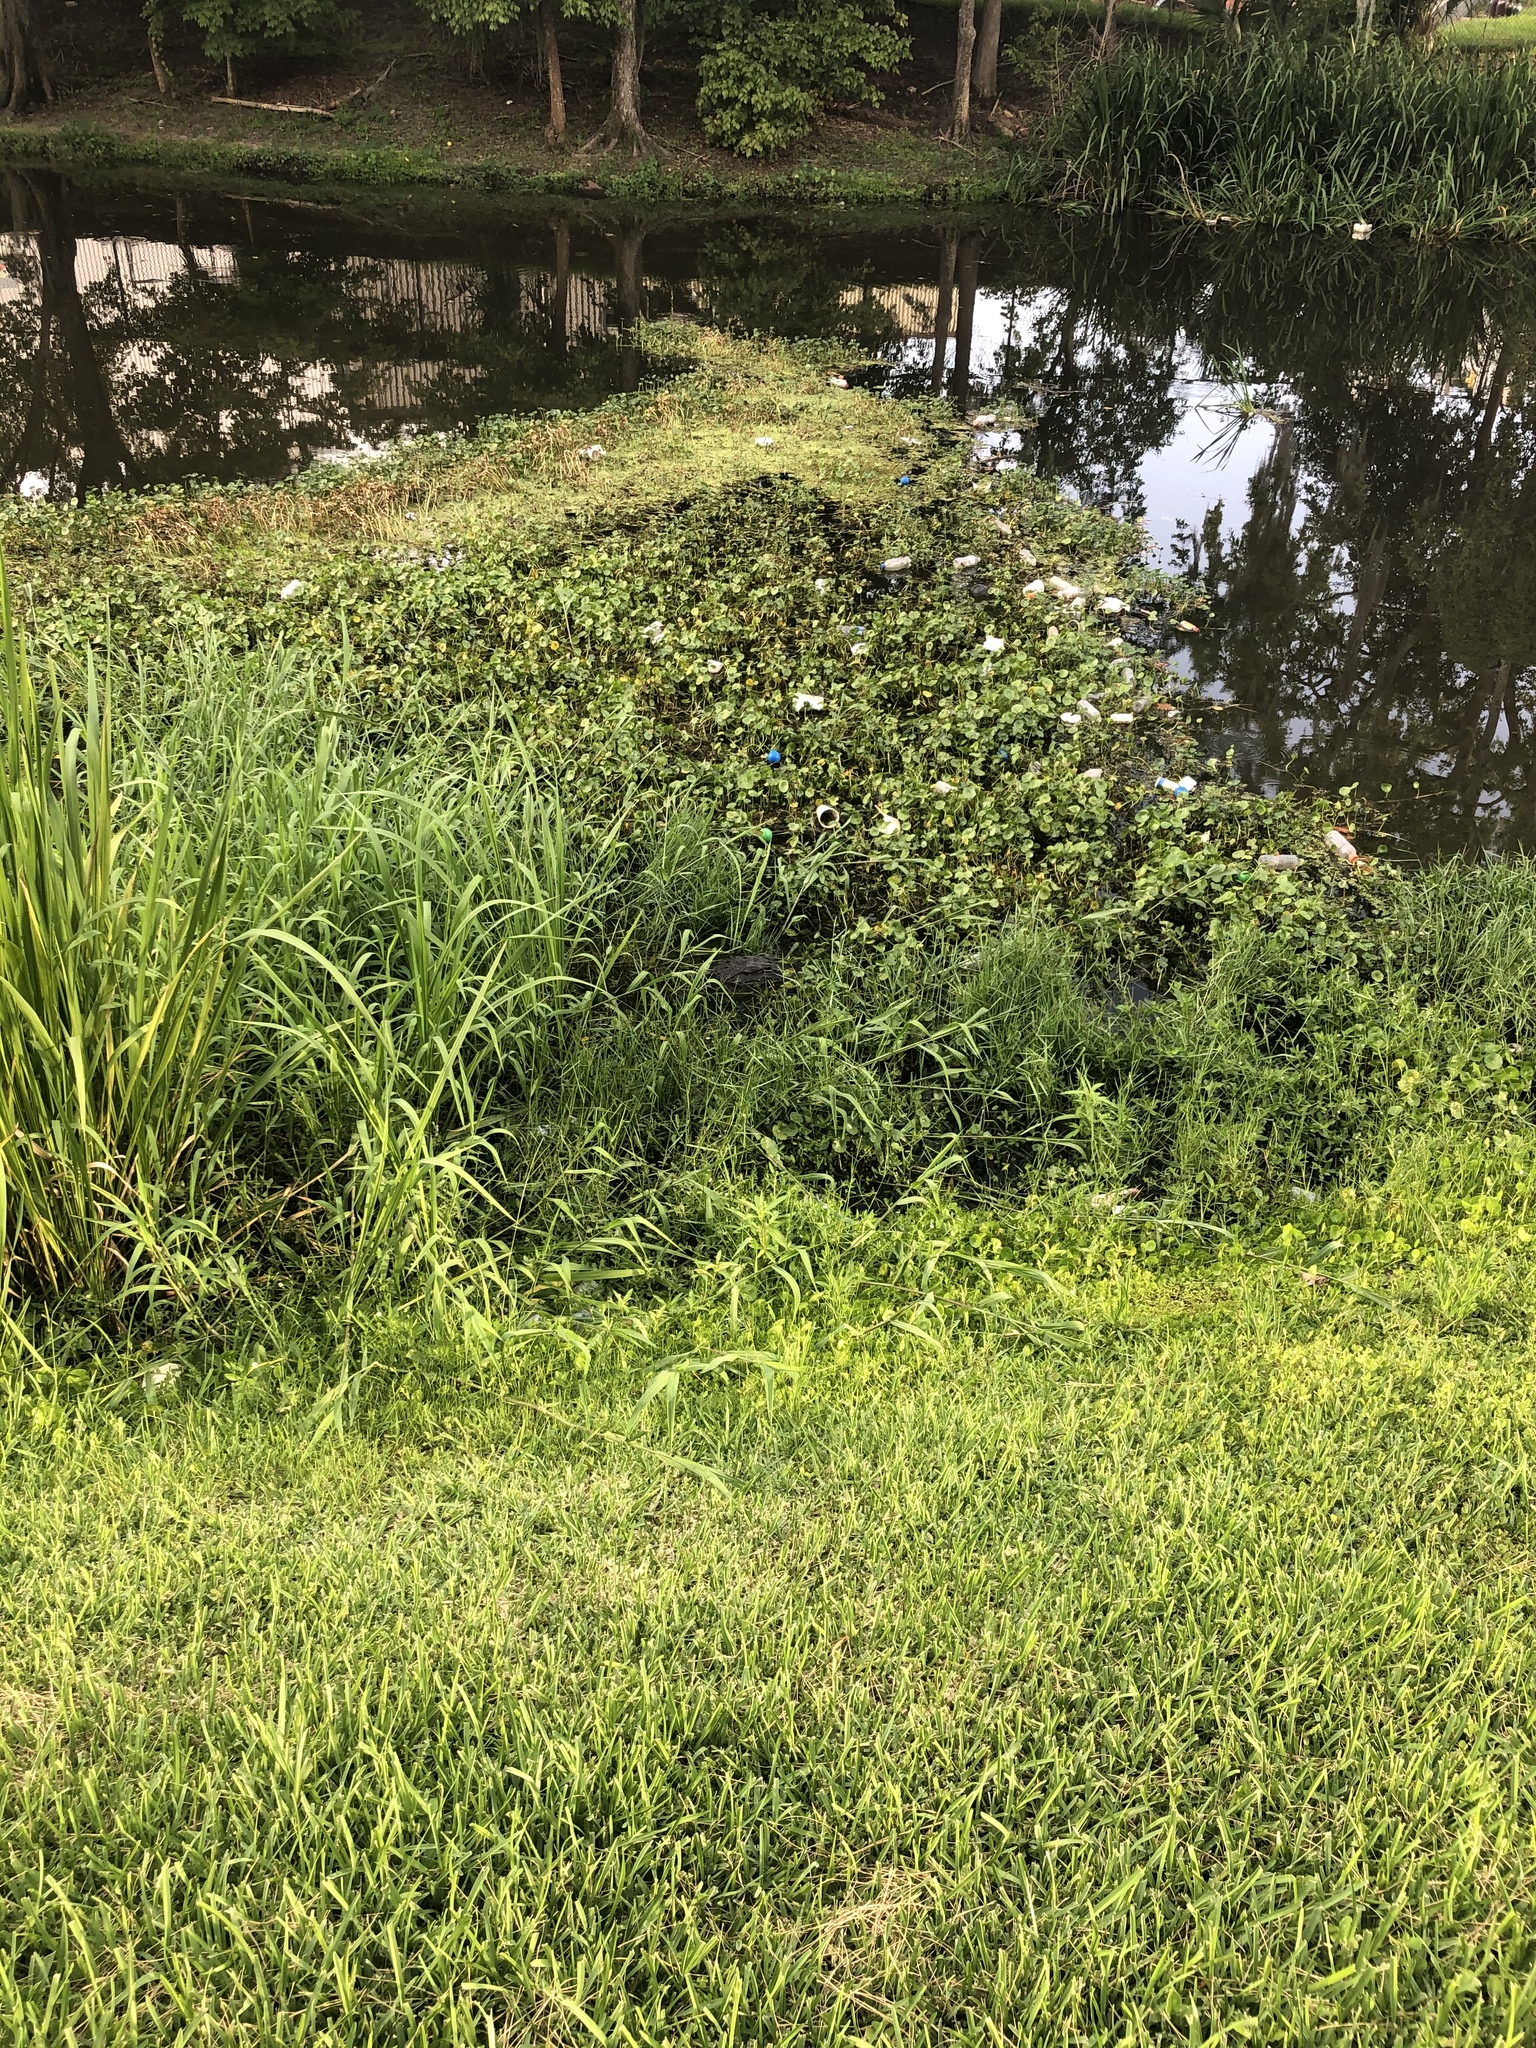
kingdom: Animalia
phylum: Chordata
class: Crocodylia
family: Alligatoridae
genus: Alligator
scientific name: Alligator mississippiensis
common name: American alligator
